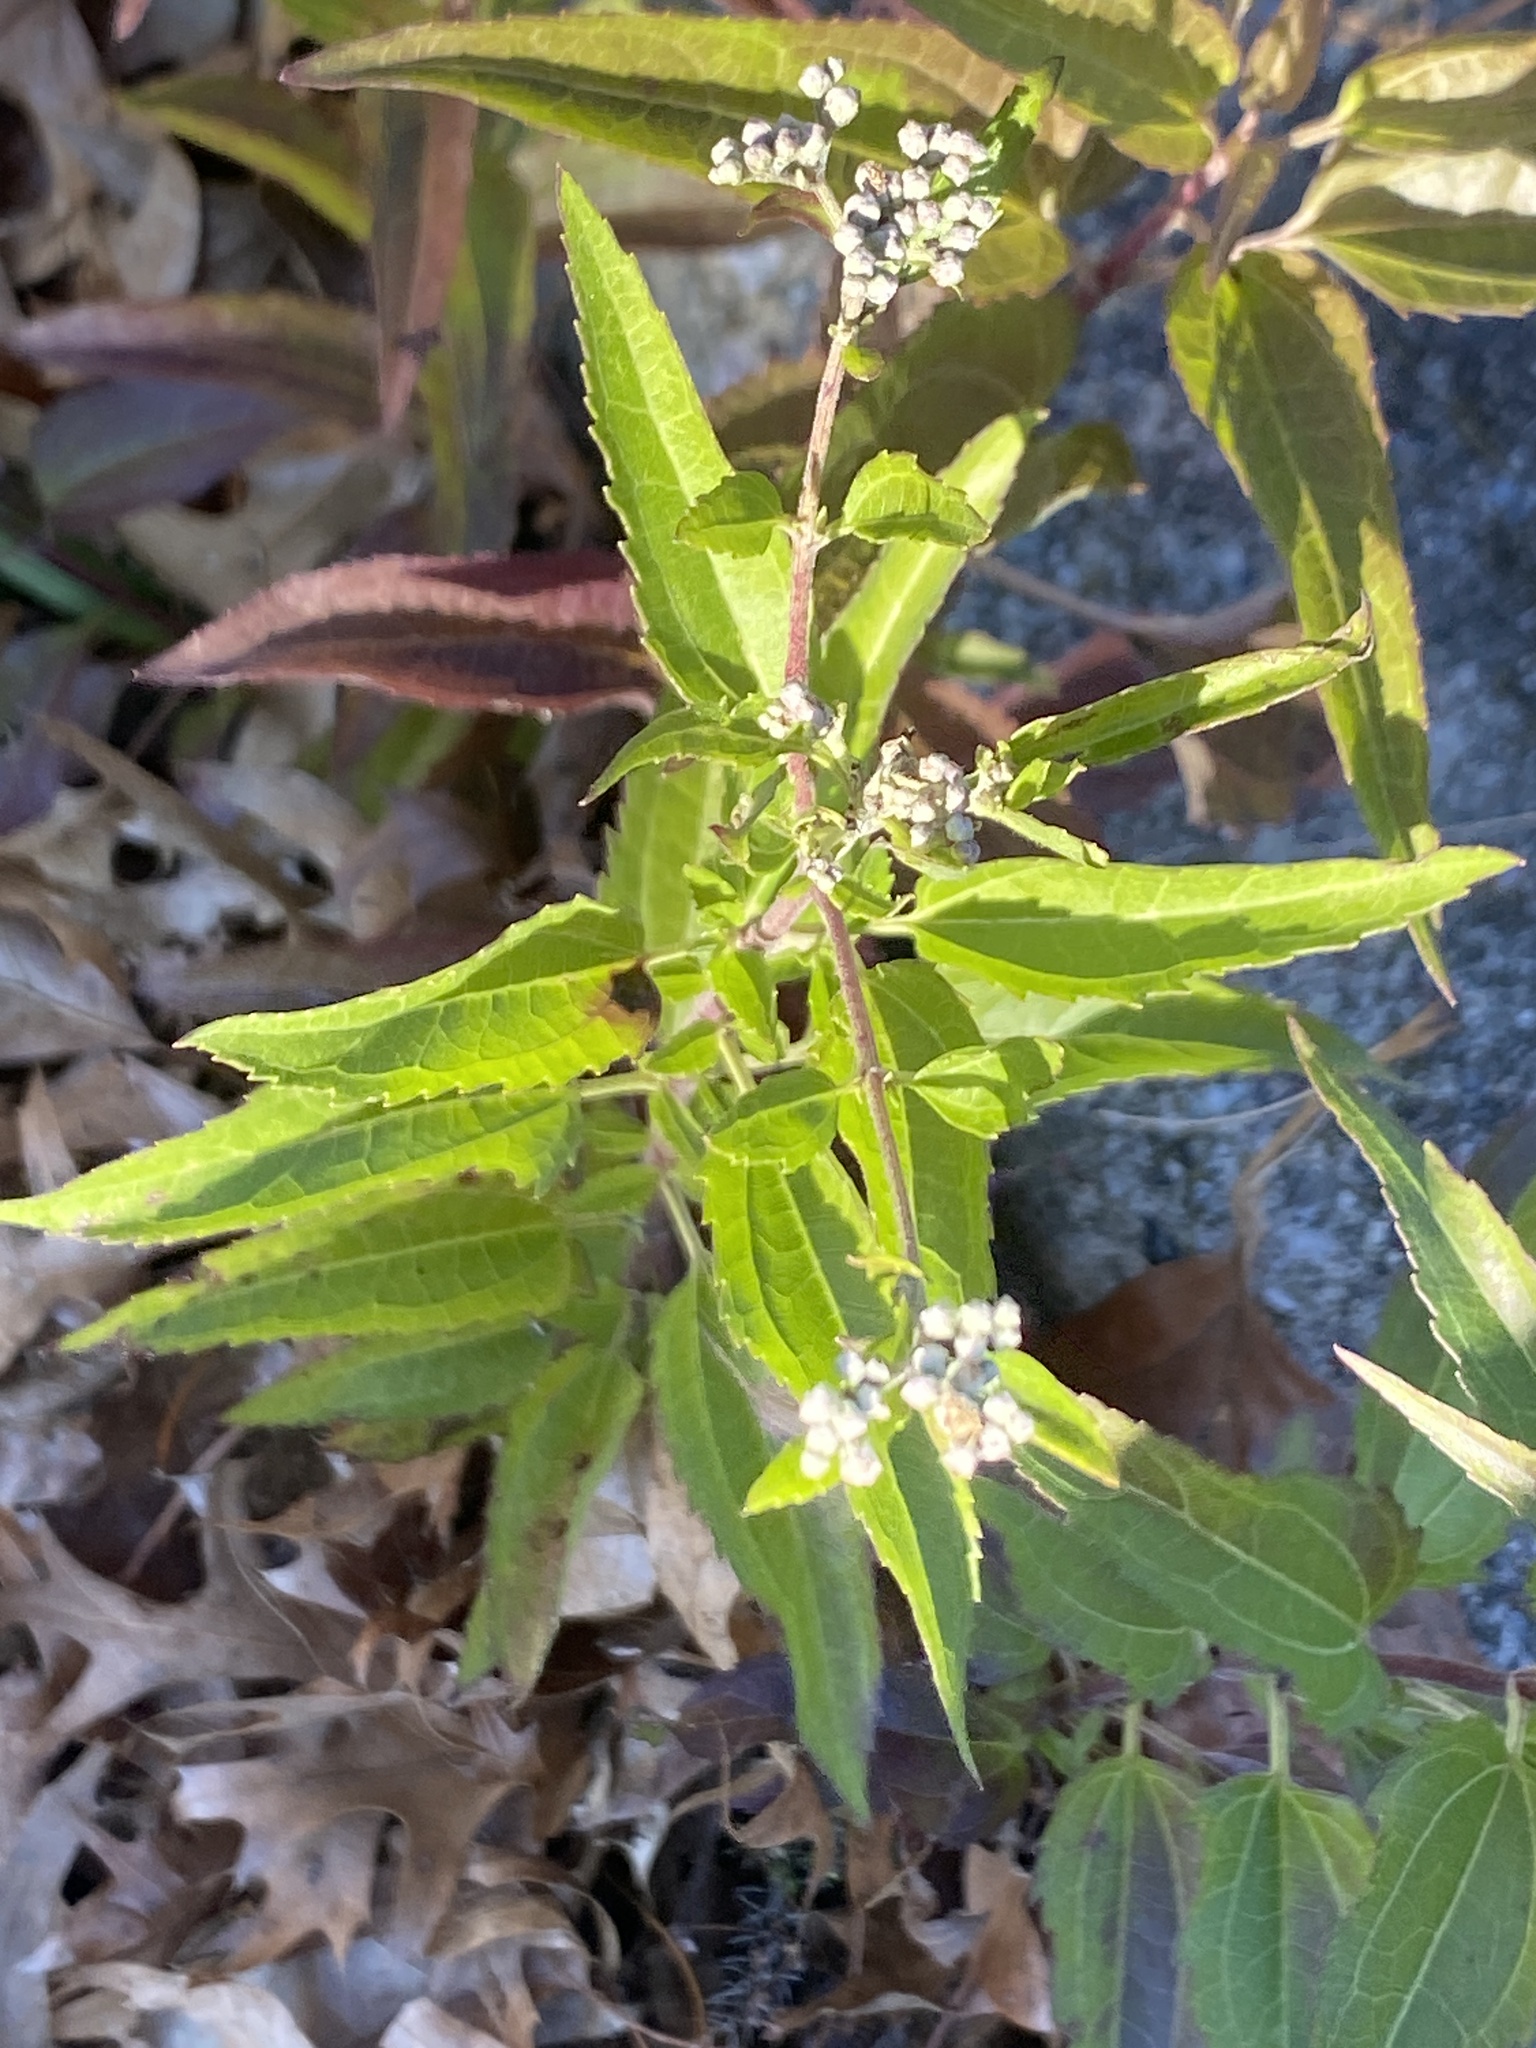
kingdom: Plantae
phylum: Tracheophyta
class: Magnoliopsida
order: Asterales
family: Asteraceae
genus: Eupatorium
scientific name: Eupatorium serotinum
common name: Late boneset
